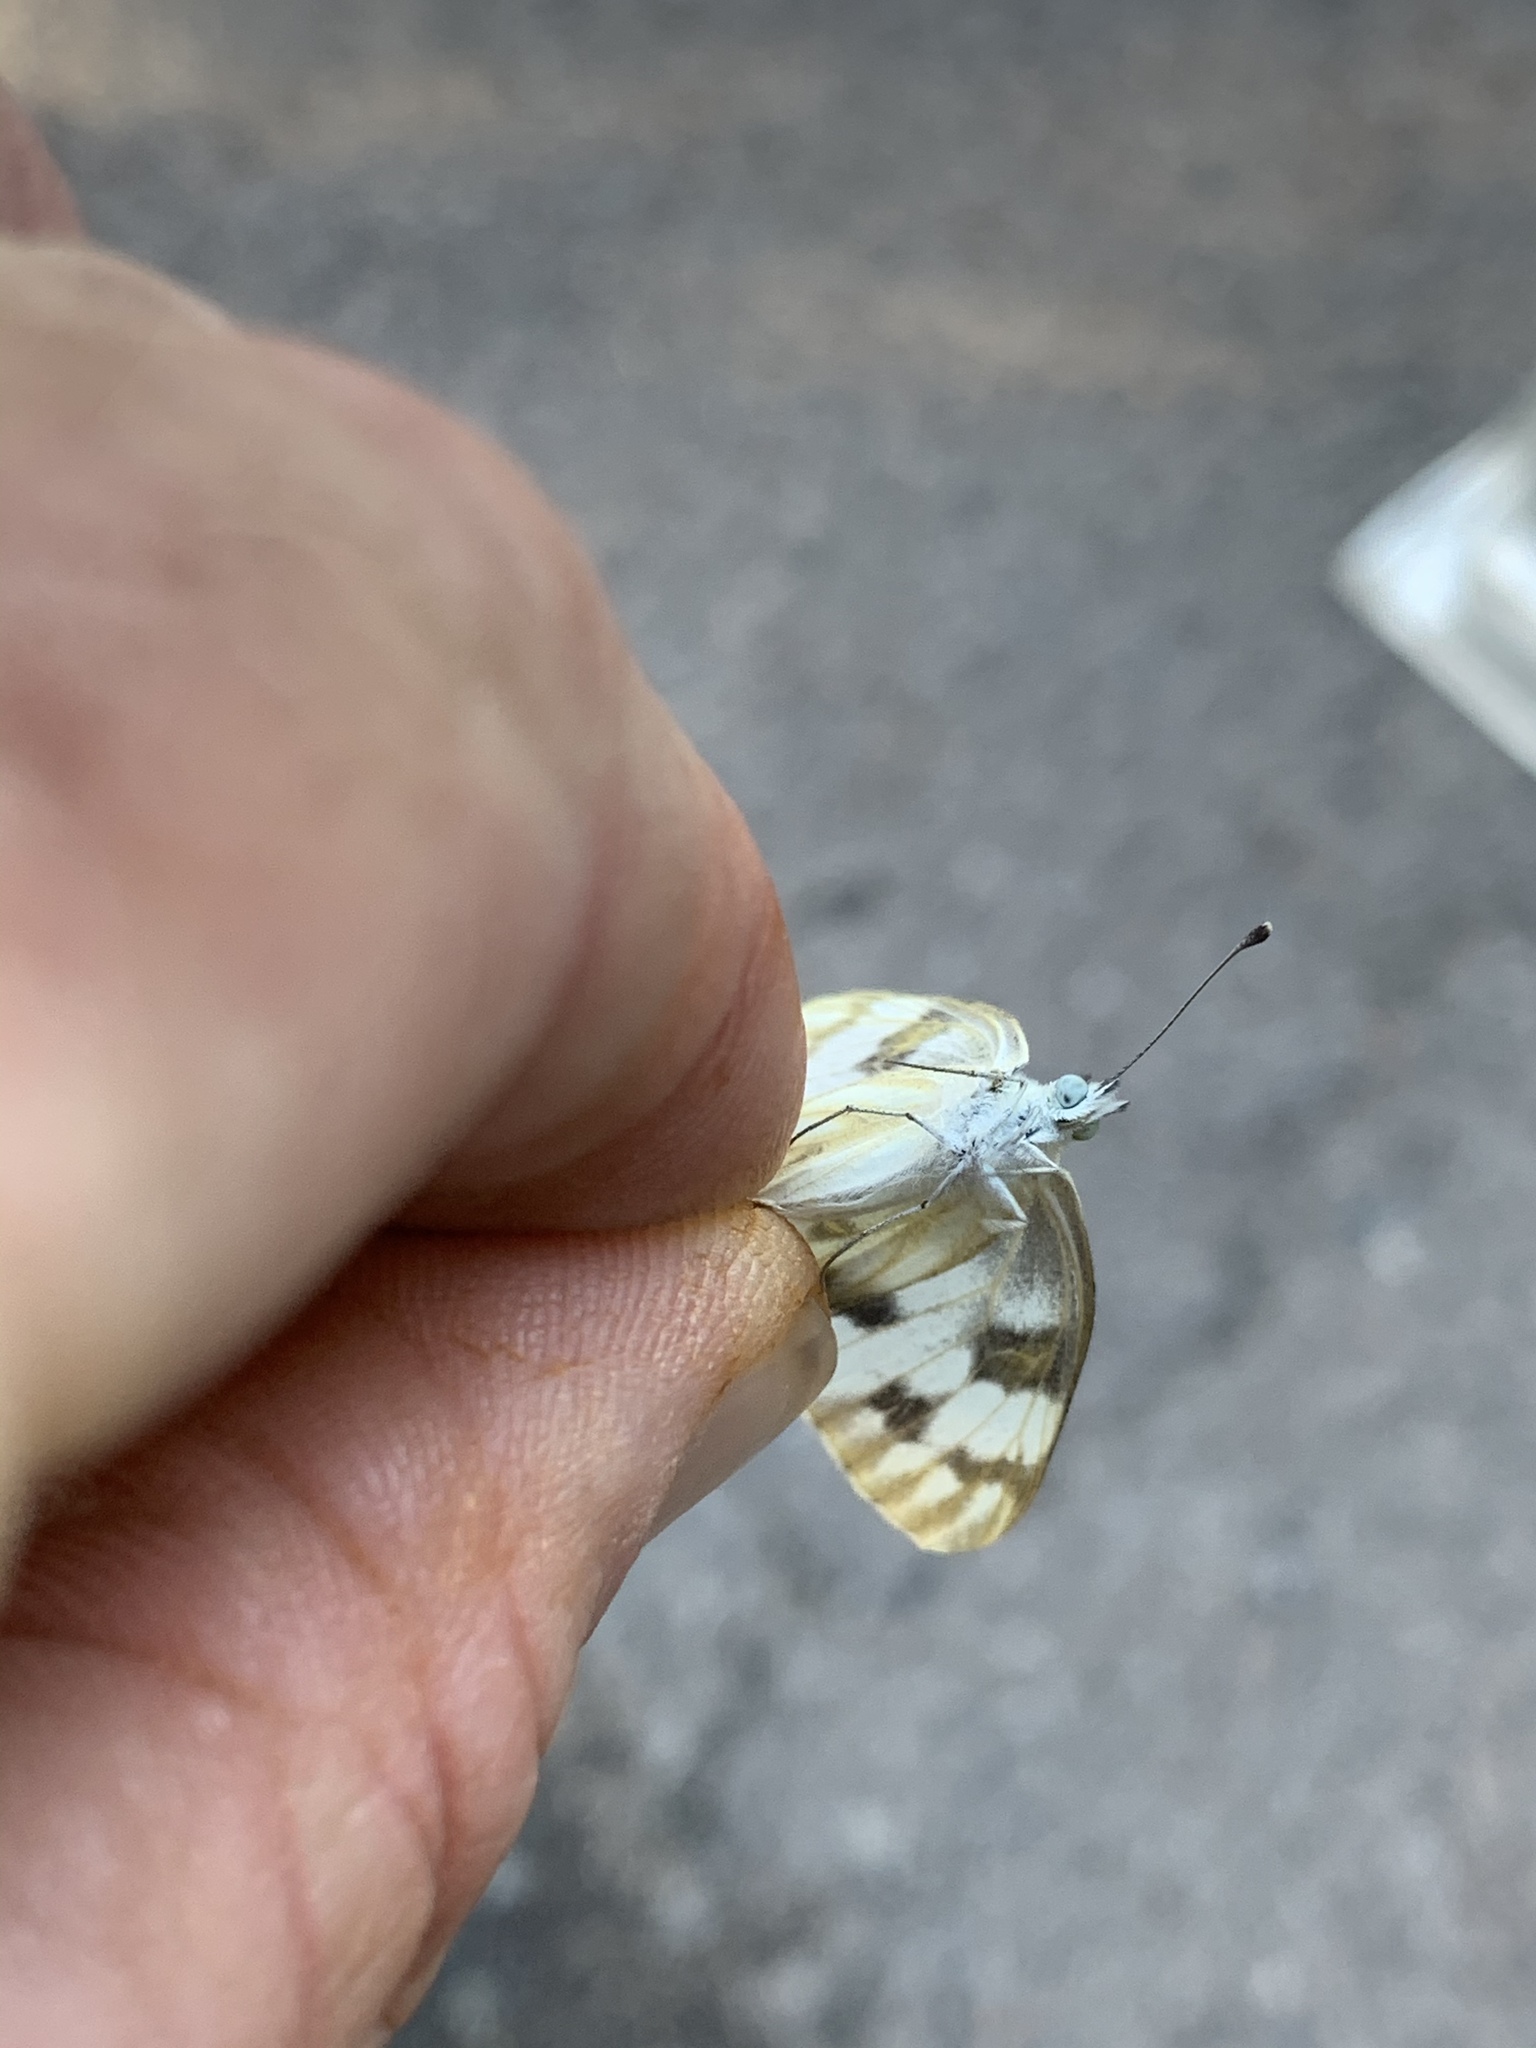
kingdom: Animalia
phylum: Arthropoda
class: Insecta
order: Lepidoptera
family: Pieridae
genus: Pontia
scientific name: Pontia protodice
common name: Checkered white
